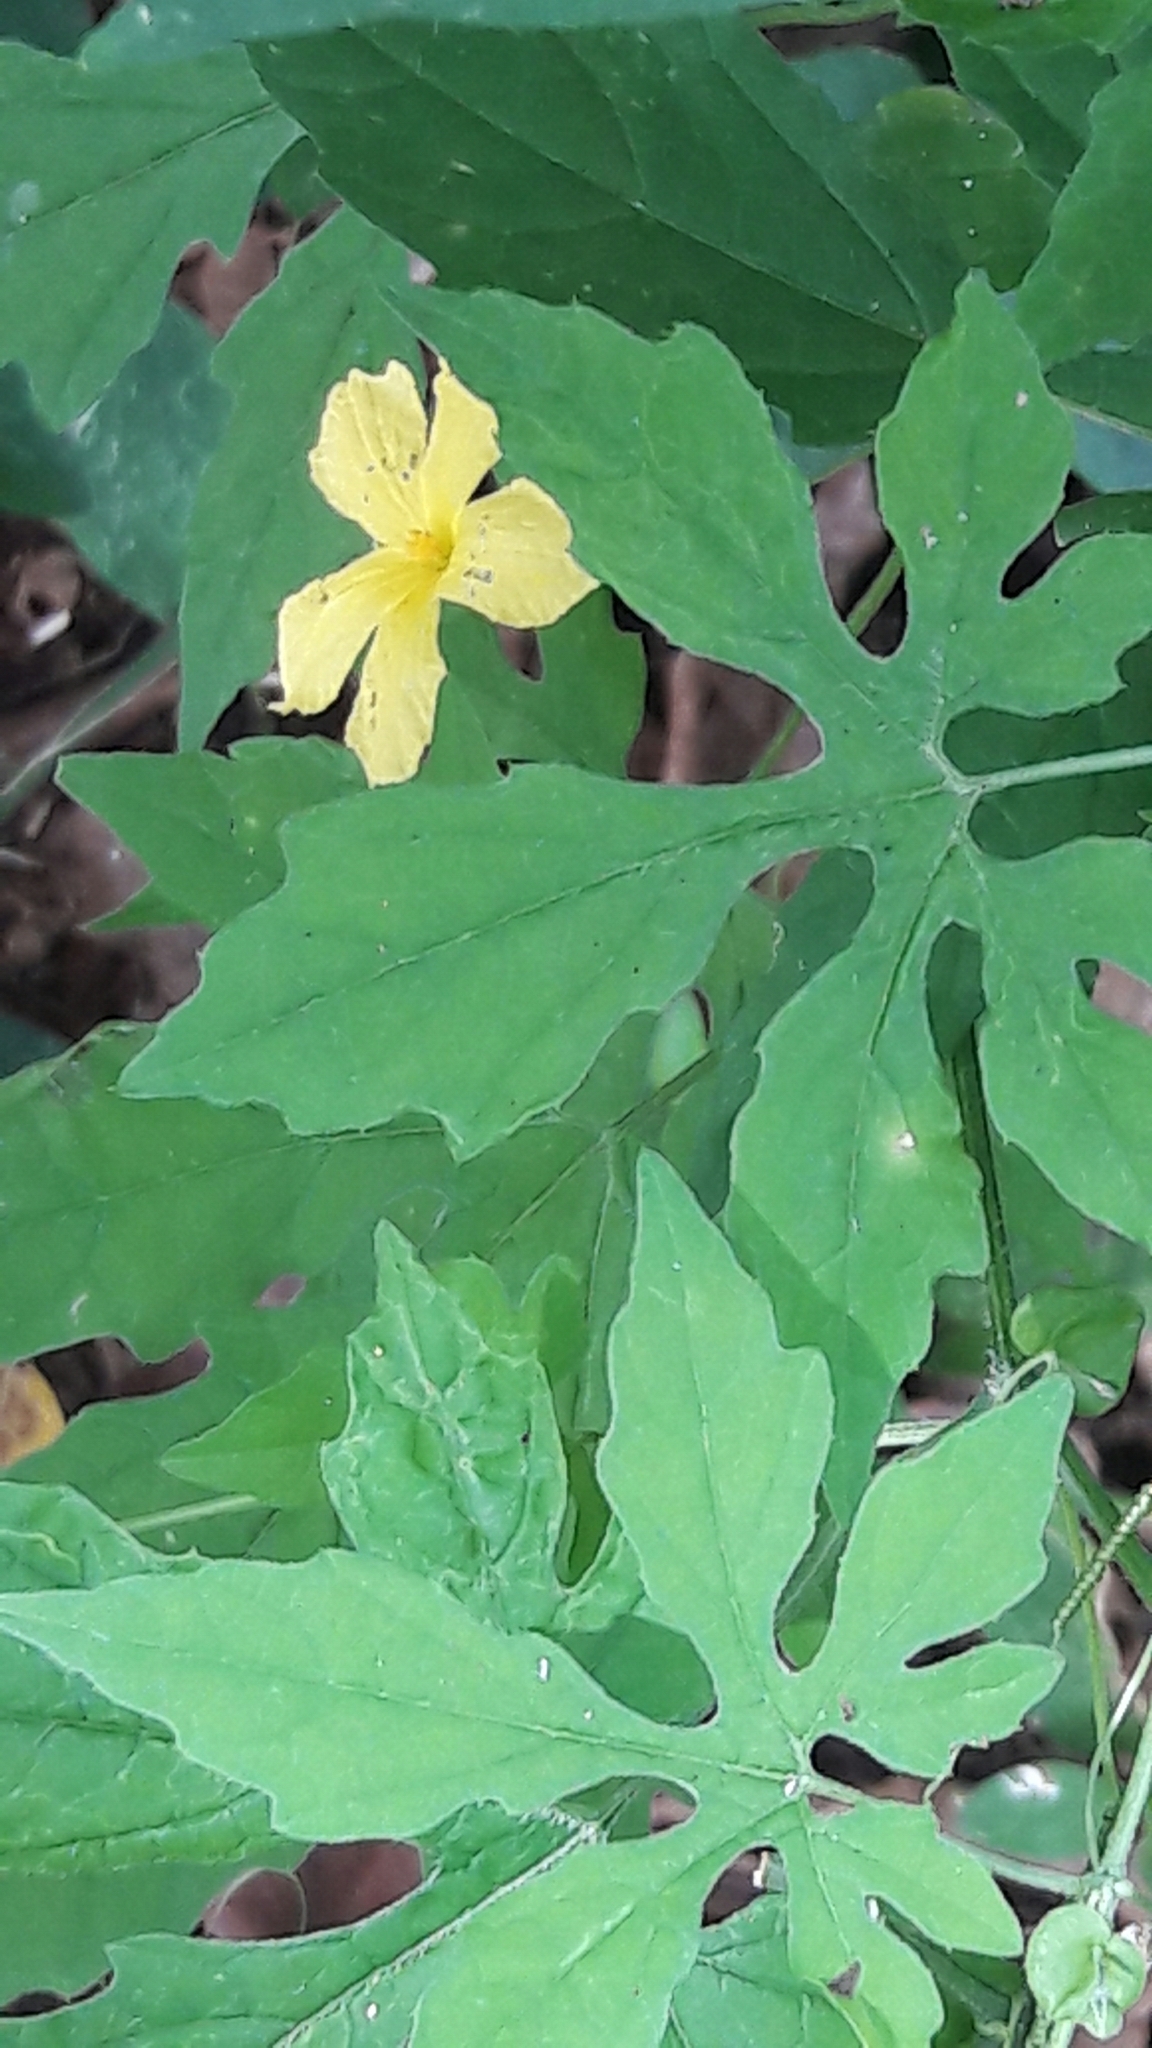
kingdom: Plantae
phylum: Tracheophyta
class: Magnoliopsida
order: Cucurbitales
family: Cucurbitaceae
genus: Momordica
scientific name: Momordica charantia
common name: Balsampear
